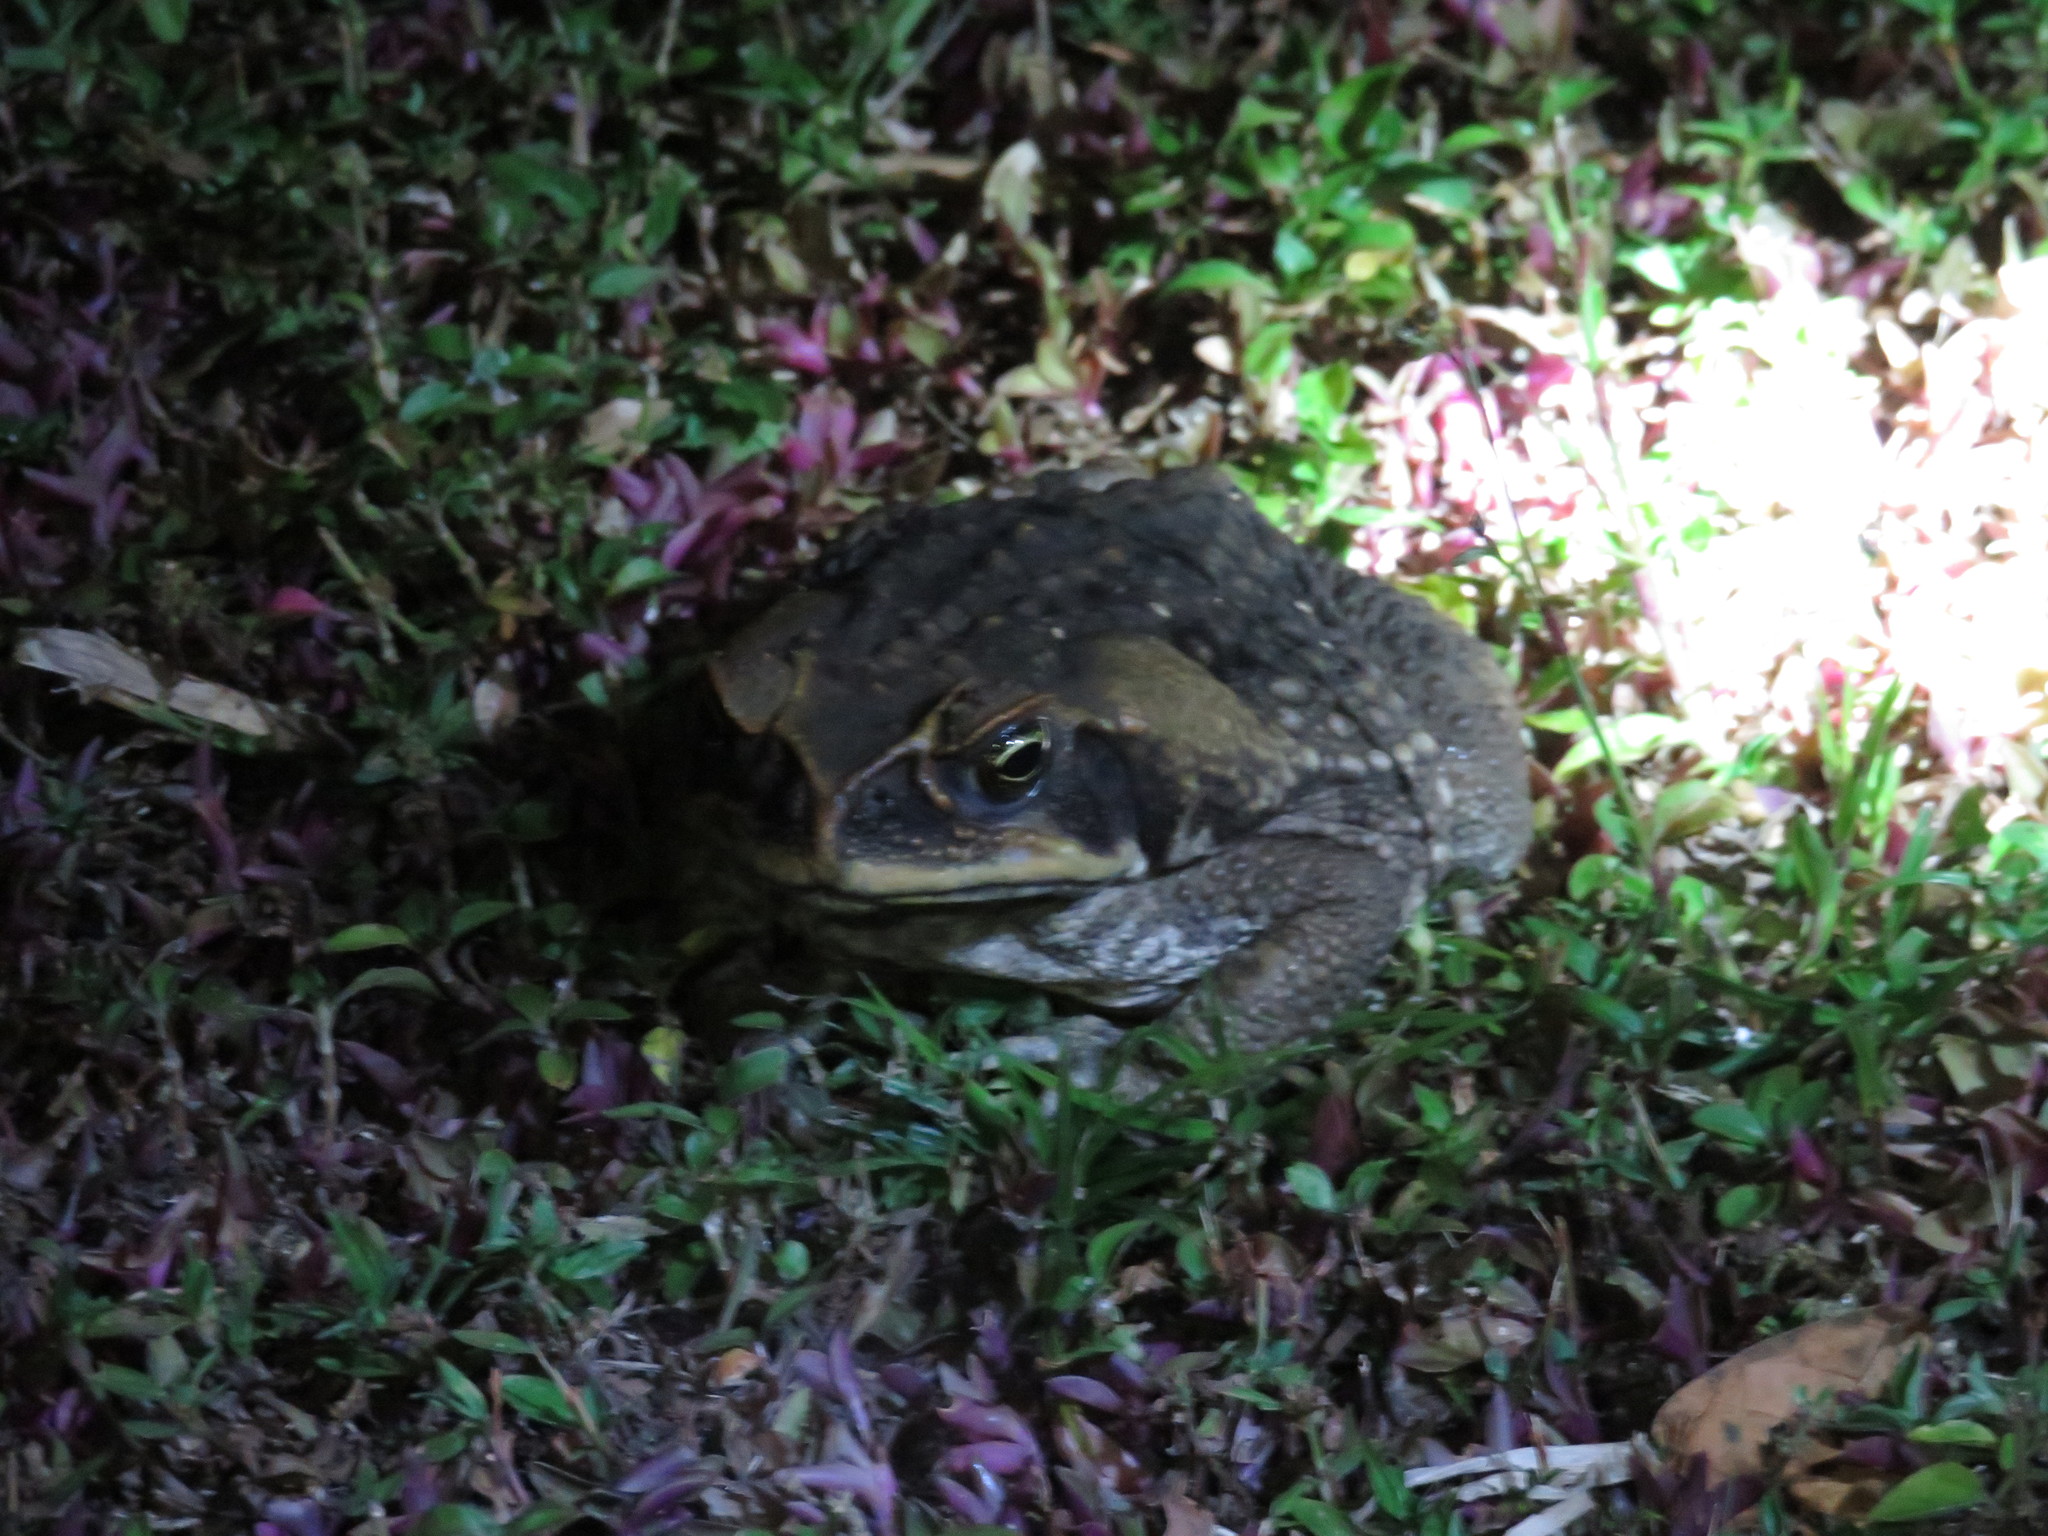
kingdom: Animalia
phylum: Chordata
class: Amphibia
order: Anura
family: Bufonidae
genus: Rhinella
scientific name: Rhinella marina
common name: Cane toad
